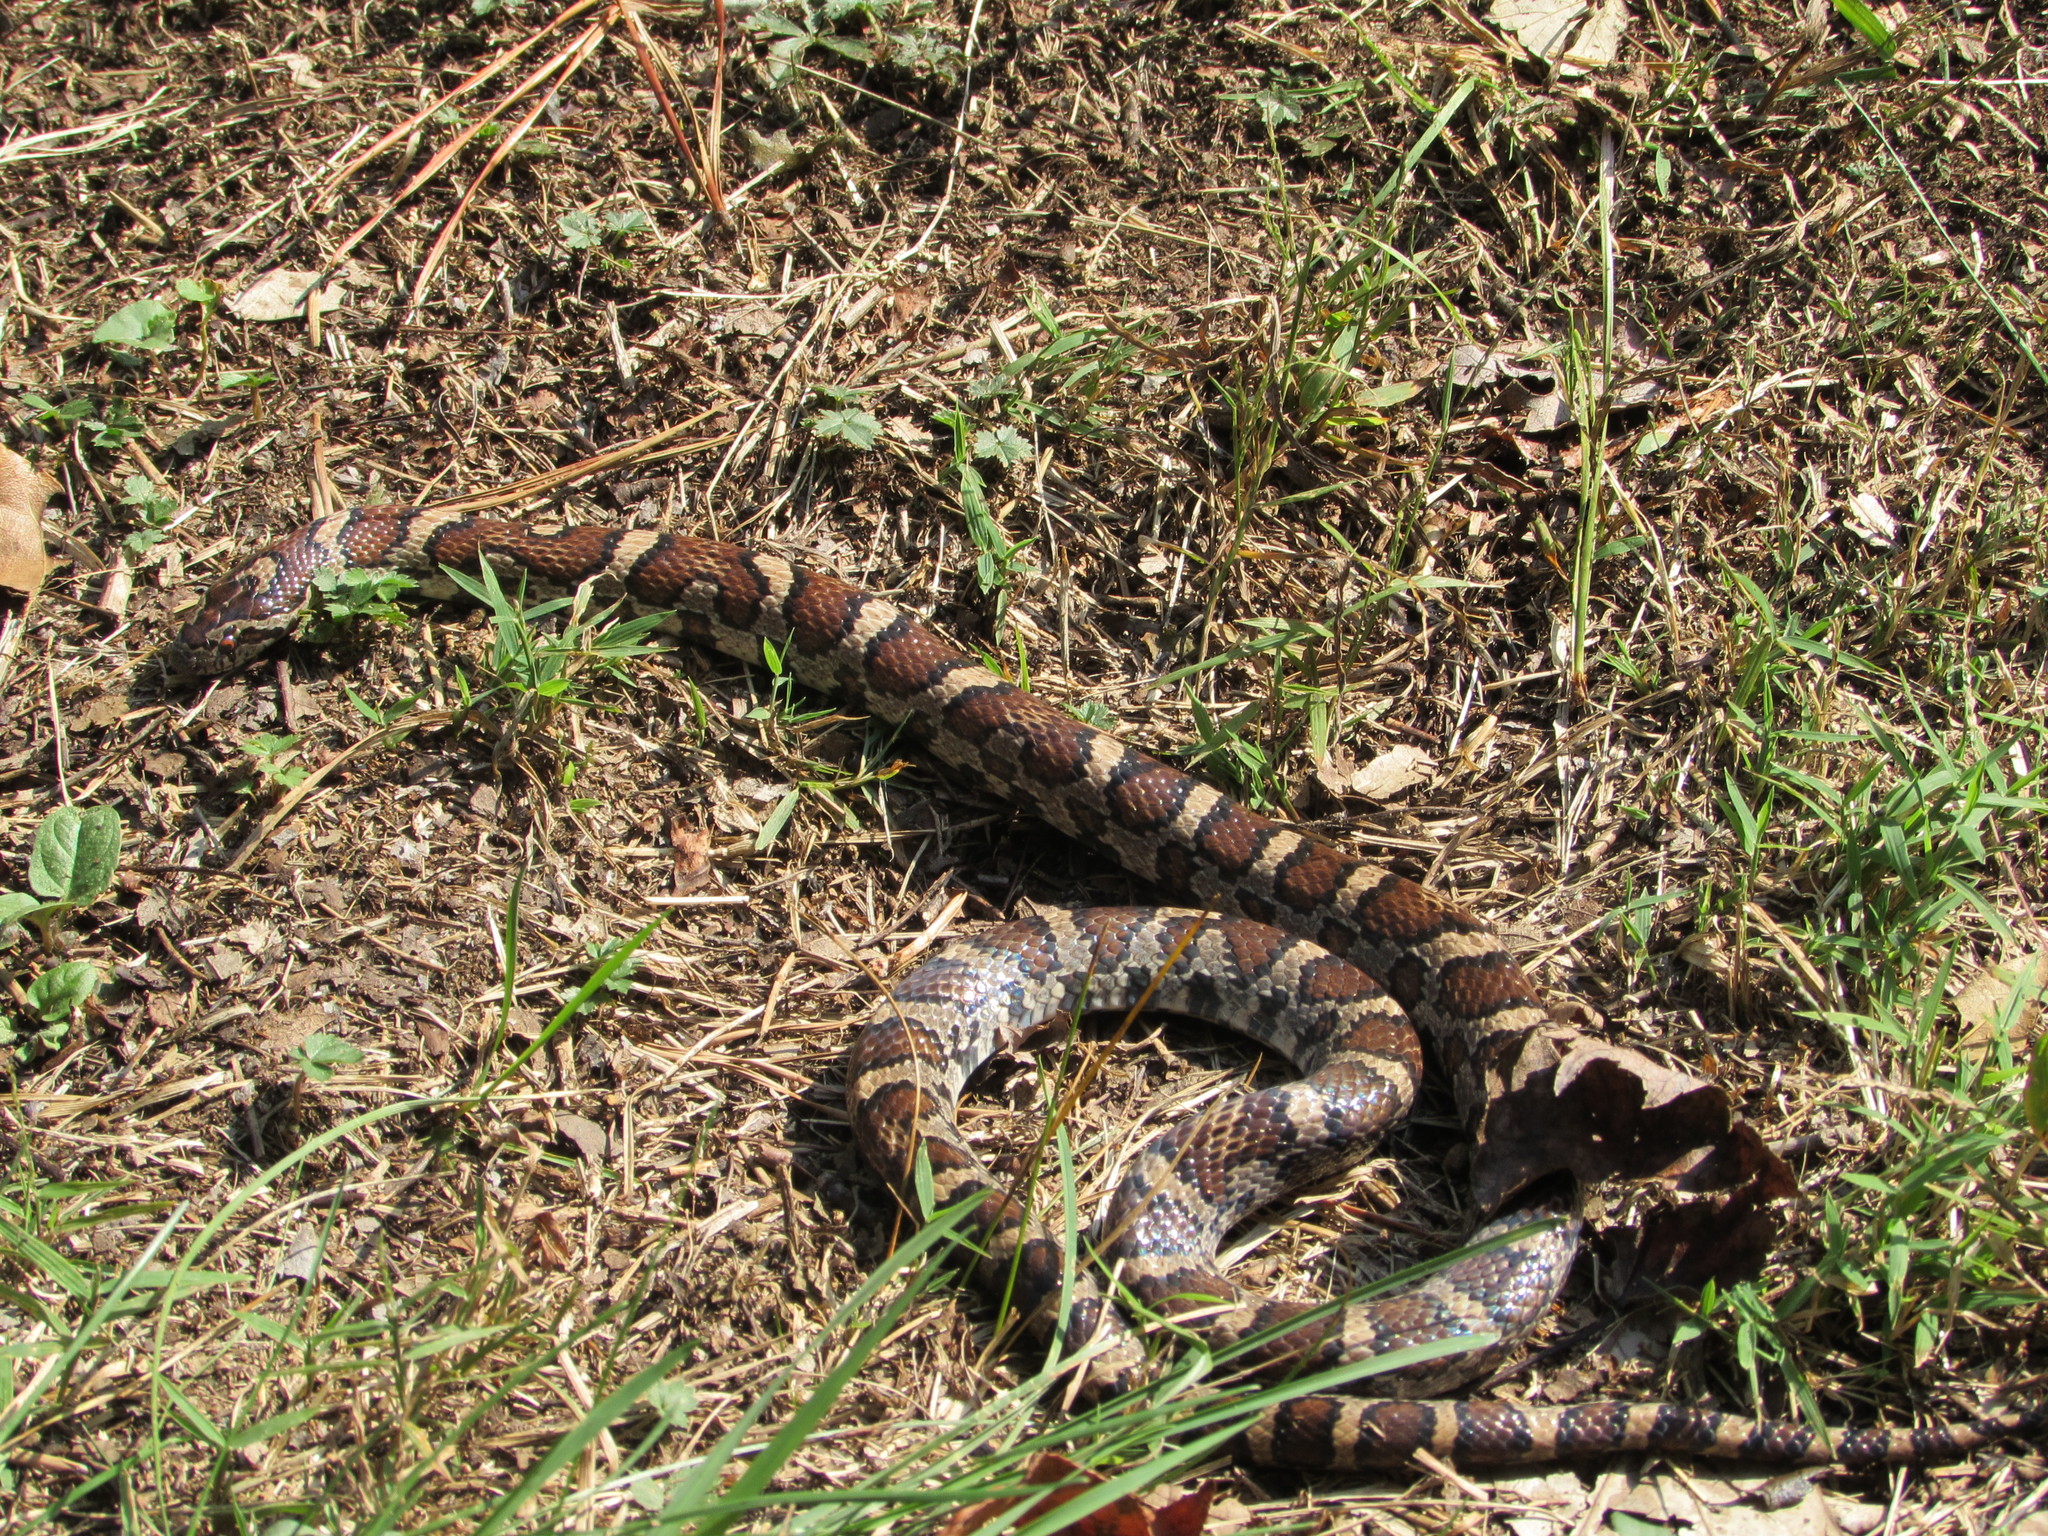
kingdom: Animalia
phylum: Chordata
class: Squamata
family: Colubridae
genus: Lampropeltis
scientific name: Lampropeltis triangulum
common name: Eastern milksnake
